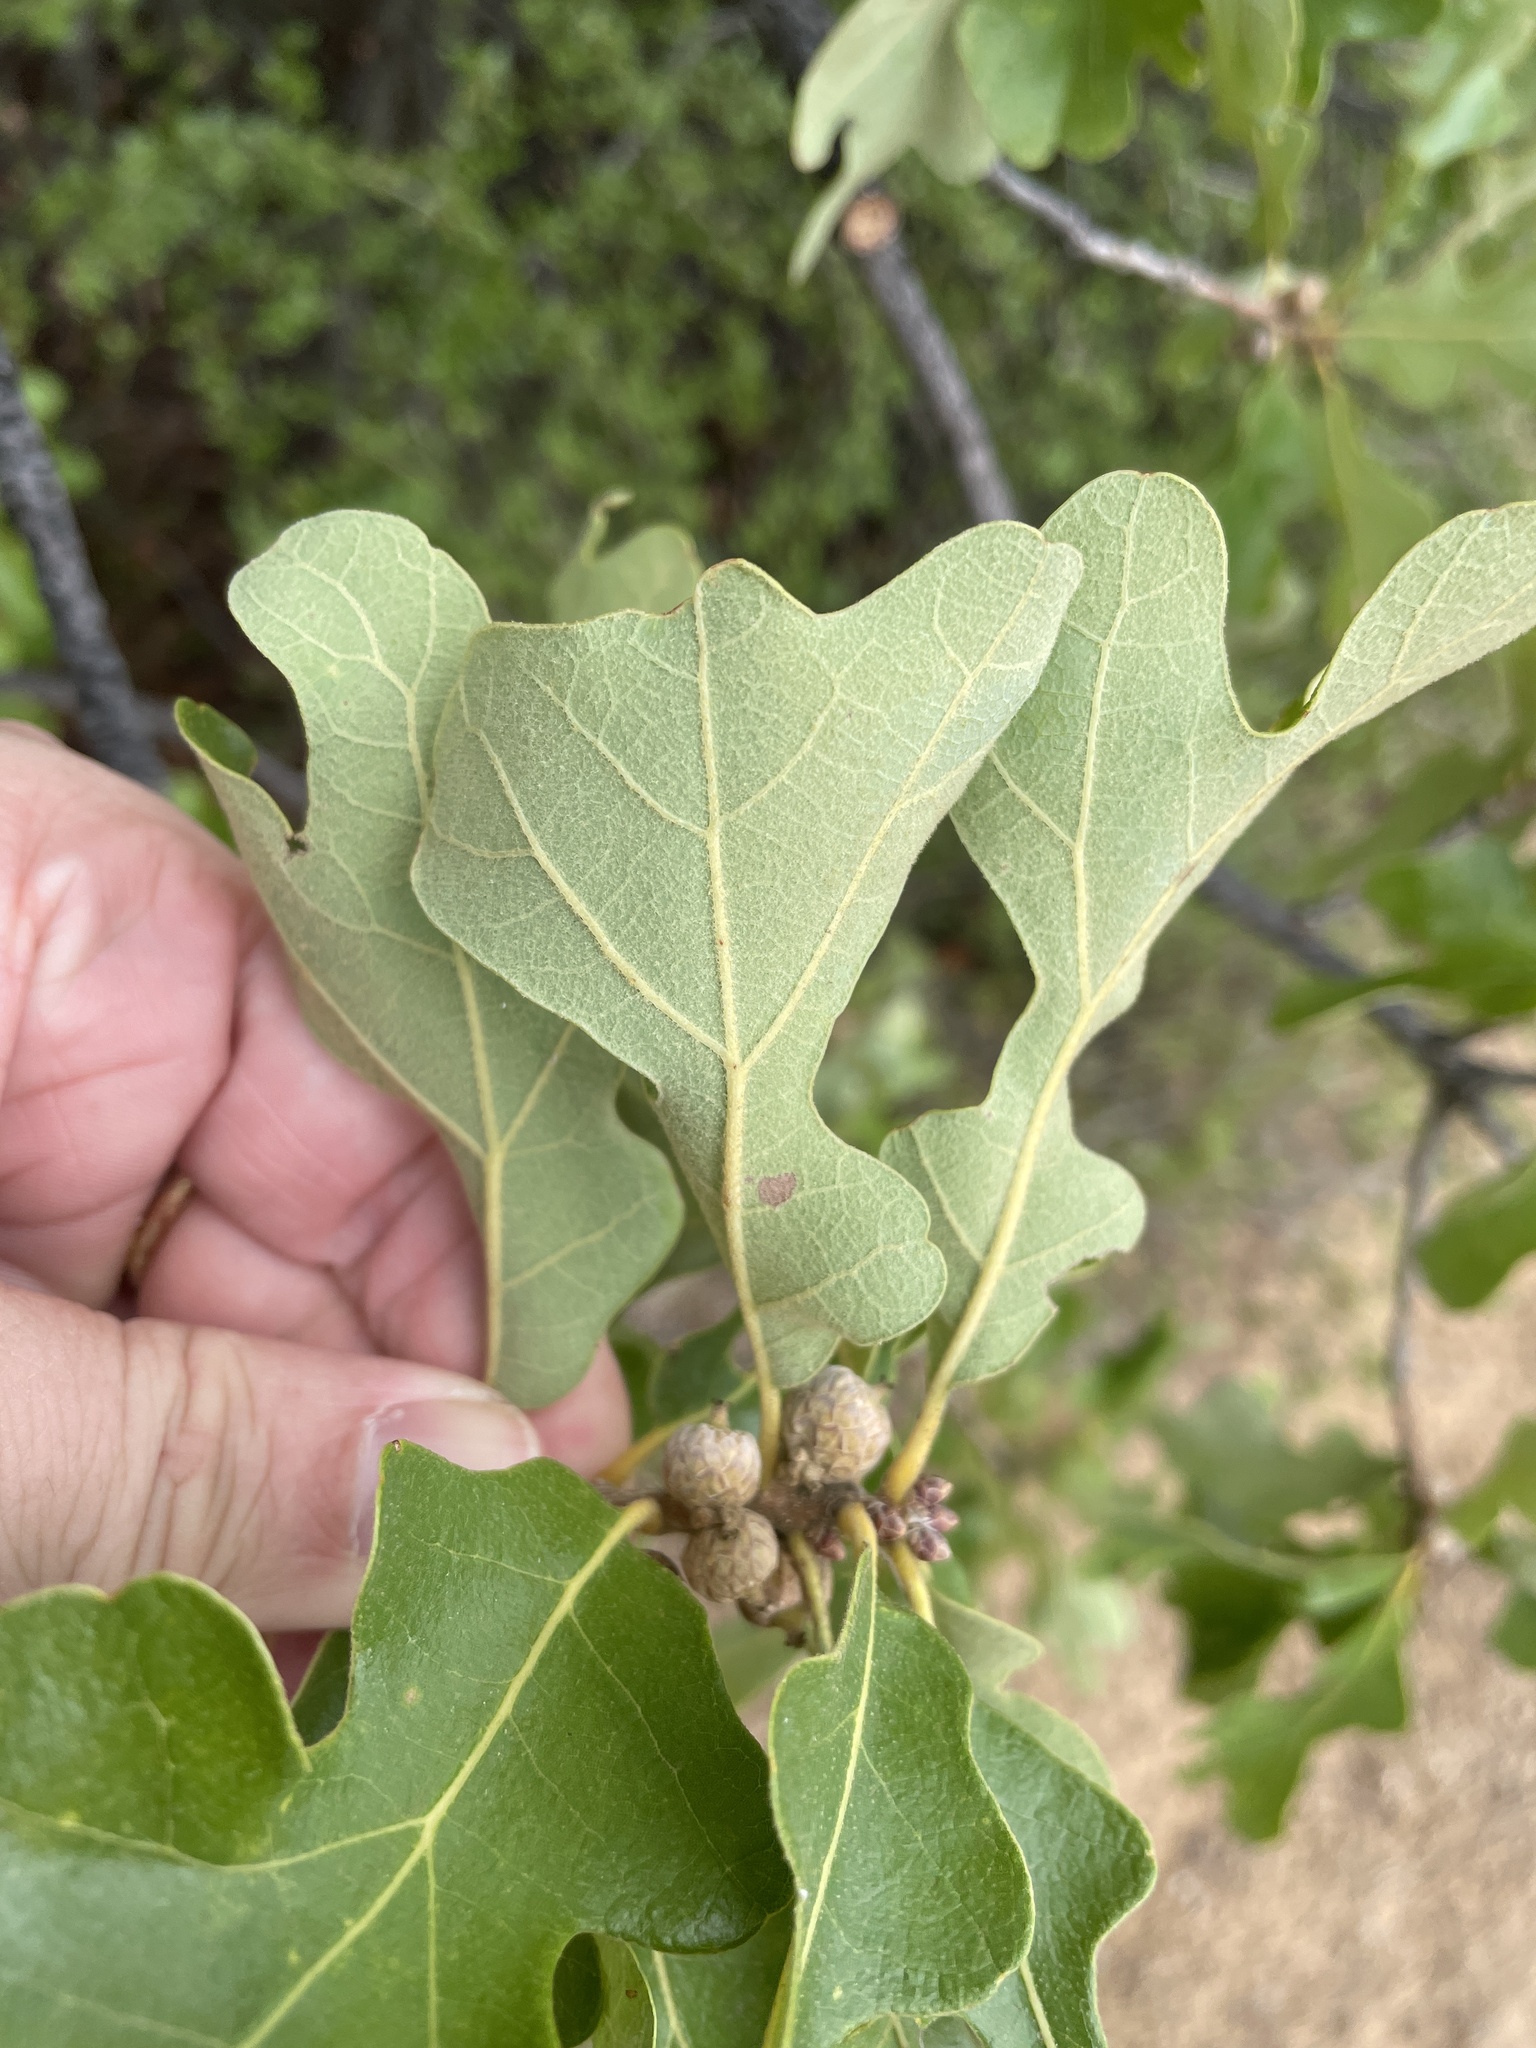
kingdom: Plantae
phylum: Tracheophyta
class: Magnoliopsida
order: Fagales
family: Fagaceae
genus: Quercus
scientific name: Quercus stellata
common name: Post oak
